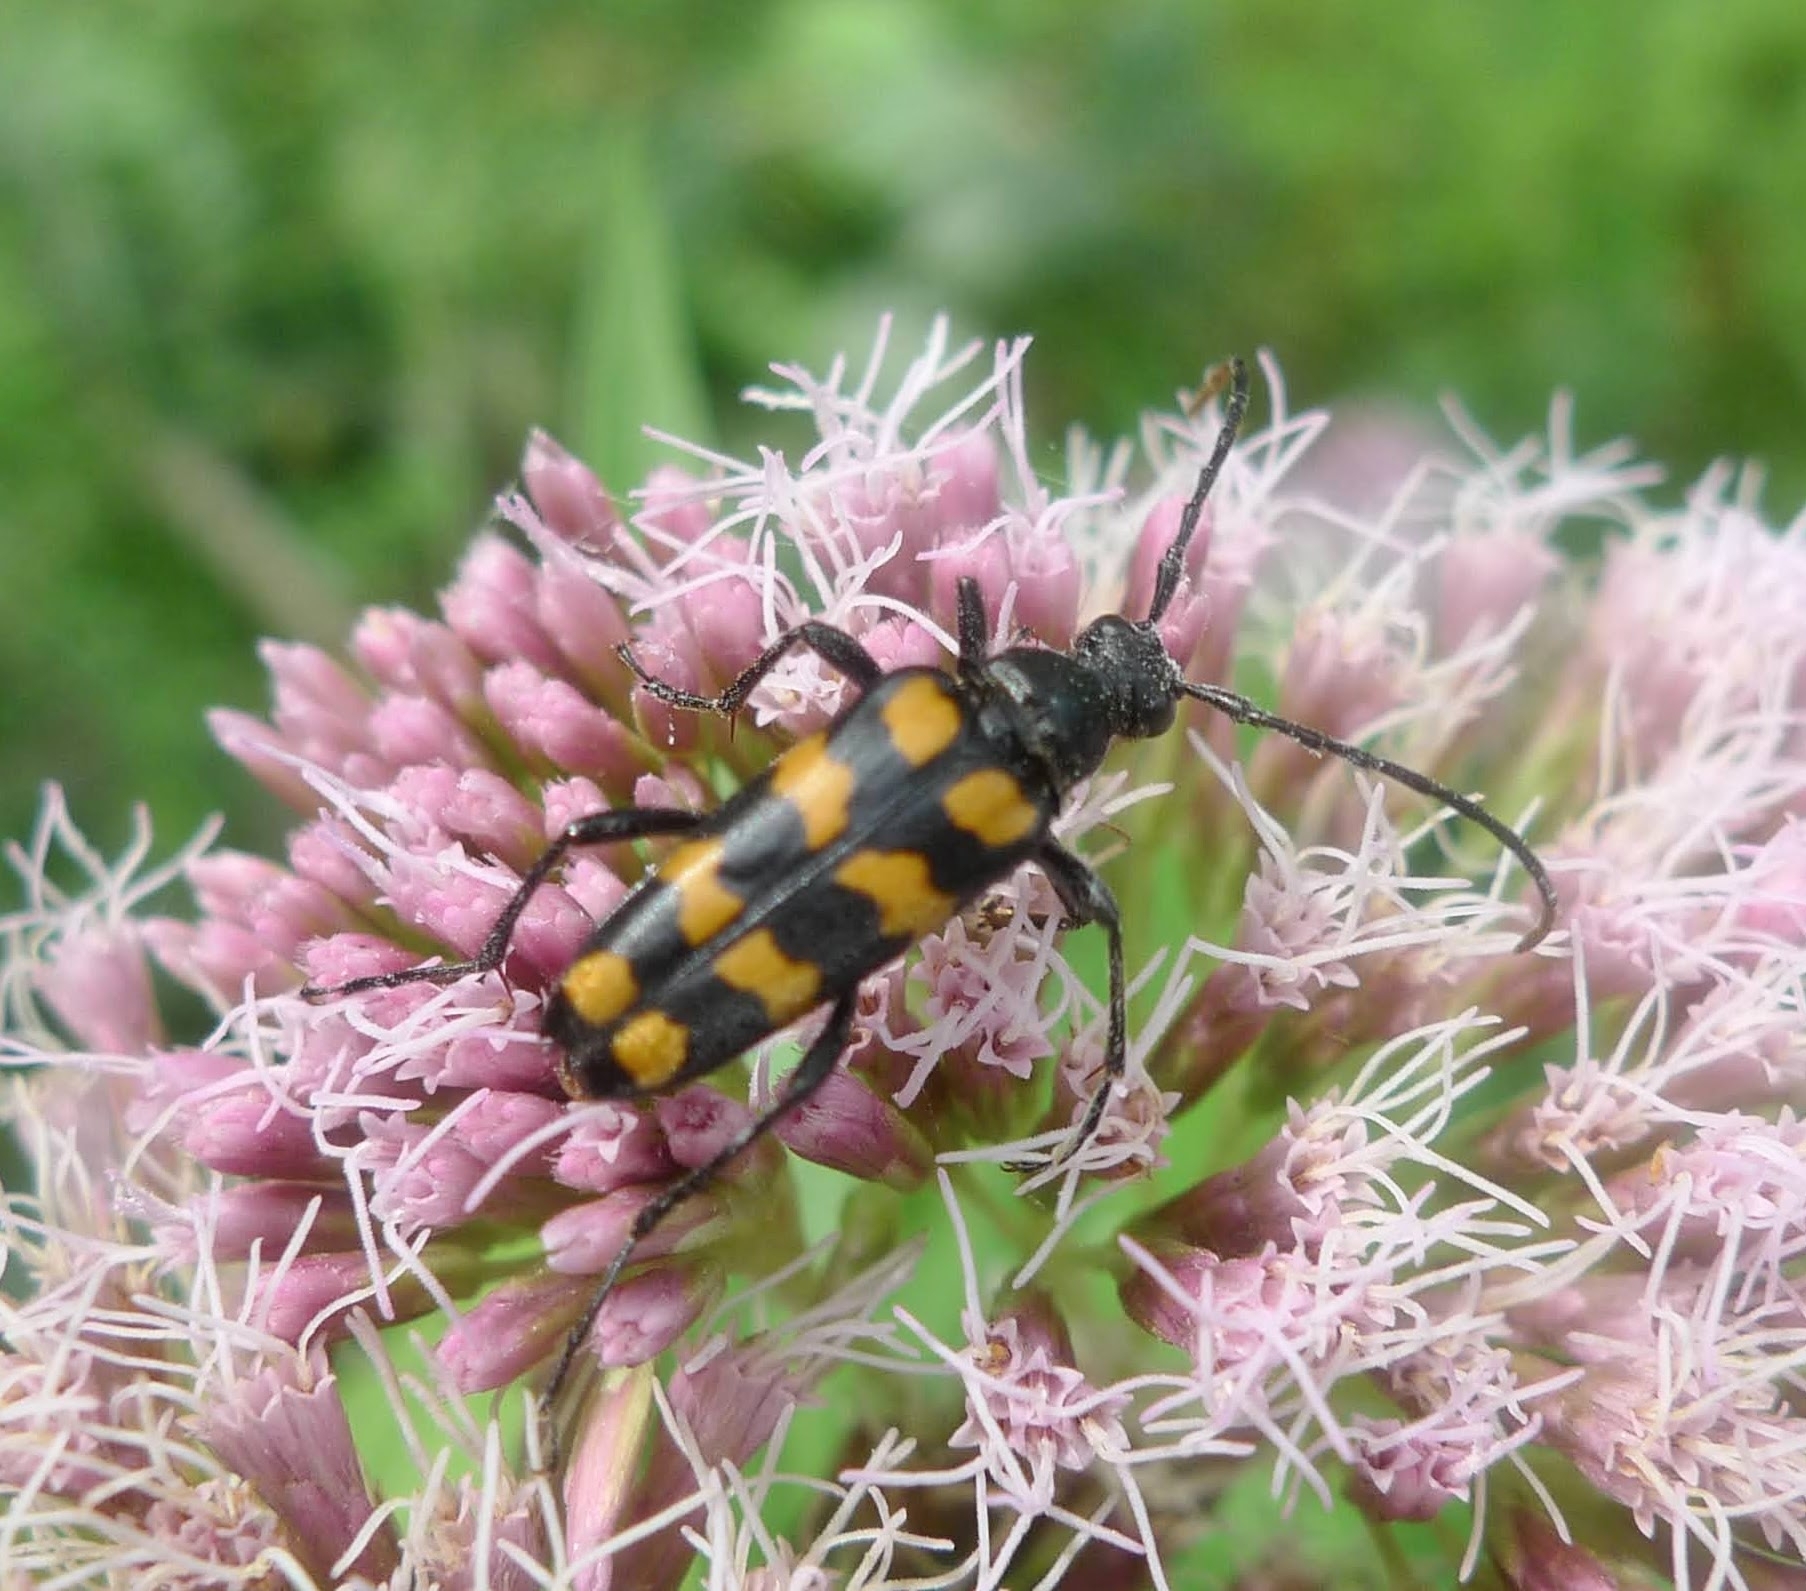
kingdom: Animalia
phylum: Arthropoda
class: Insecta
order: Coleoptera
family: Cerambycidae
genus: Leptura
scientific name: Leptura quadrifasciata
